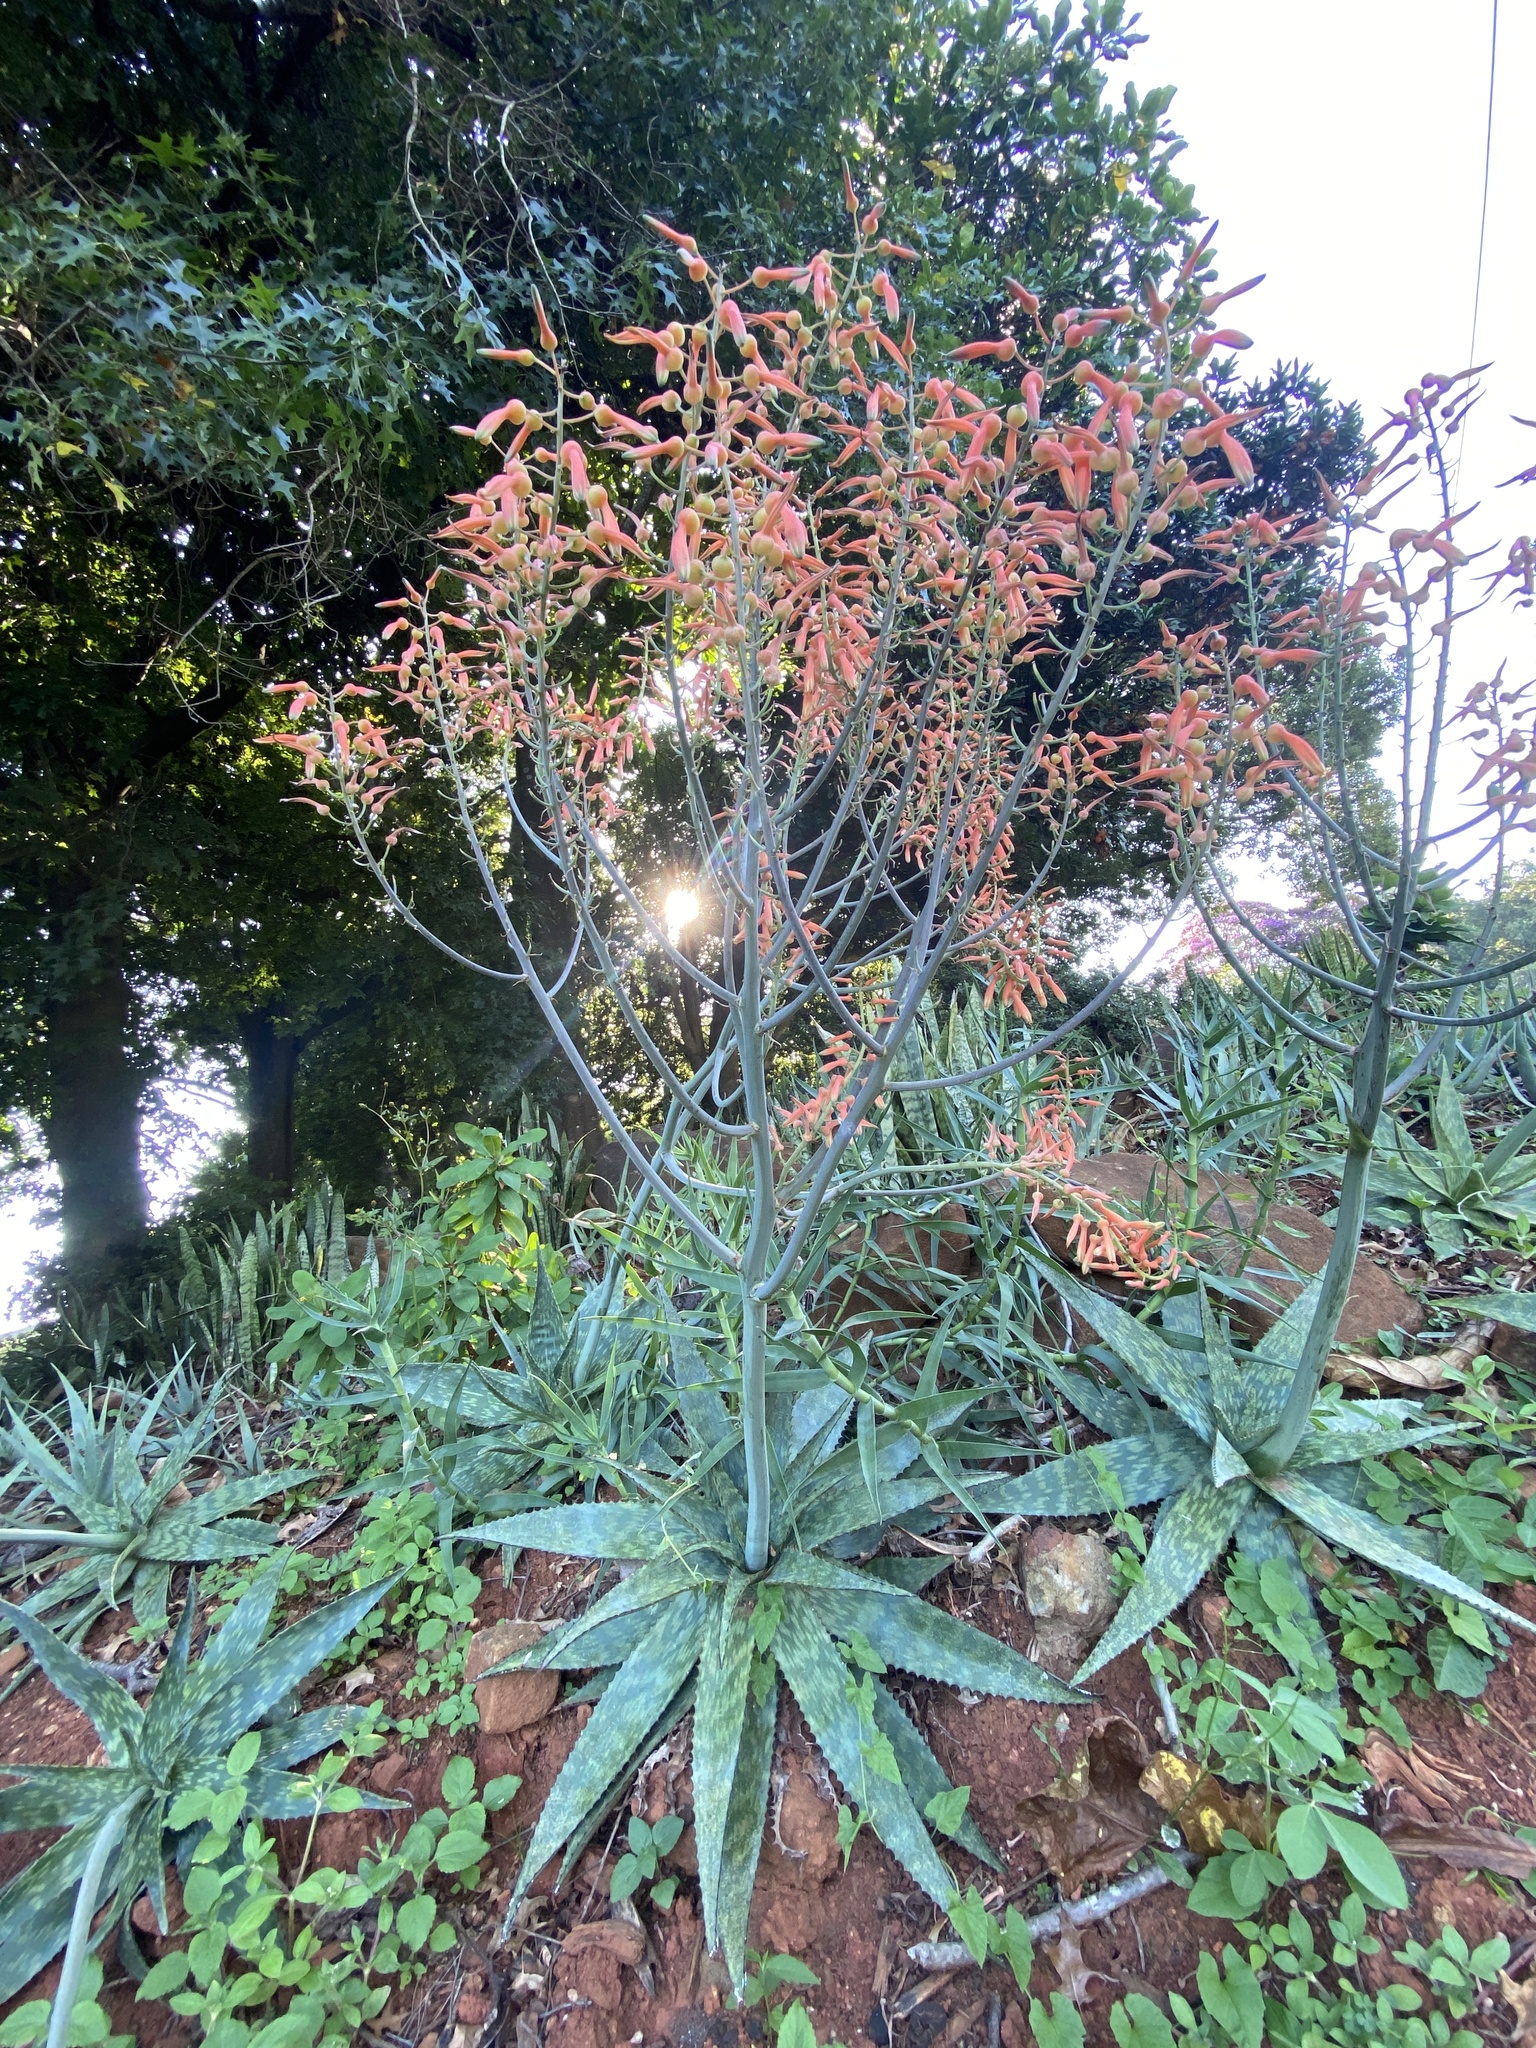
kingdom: Plantae
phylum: Tracheophyta
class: Liliopsida
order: Asparagales
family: Asphodelaceae
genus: Aloe
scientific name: Aloe lettyae
